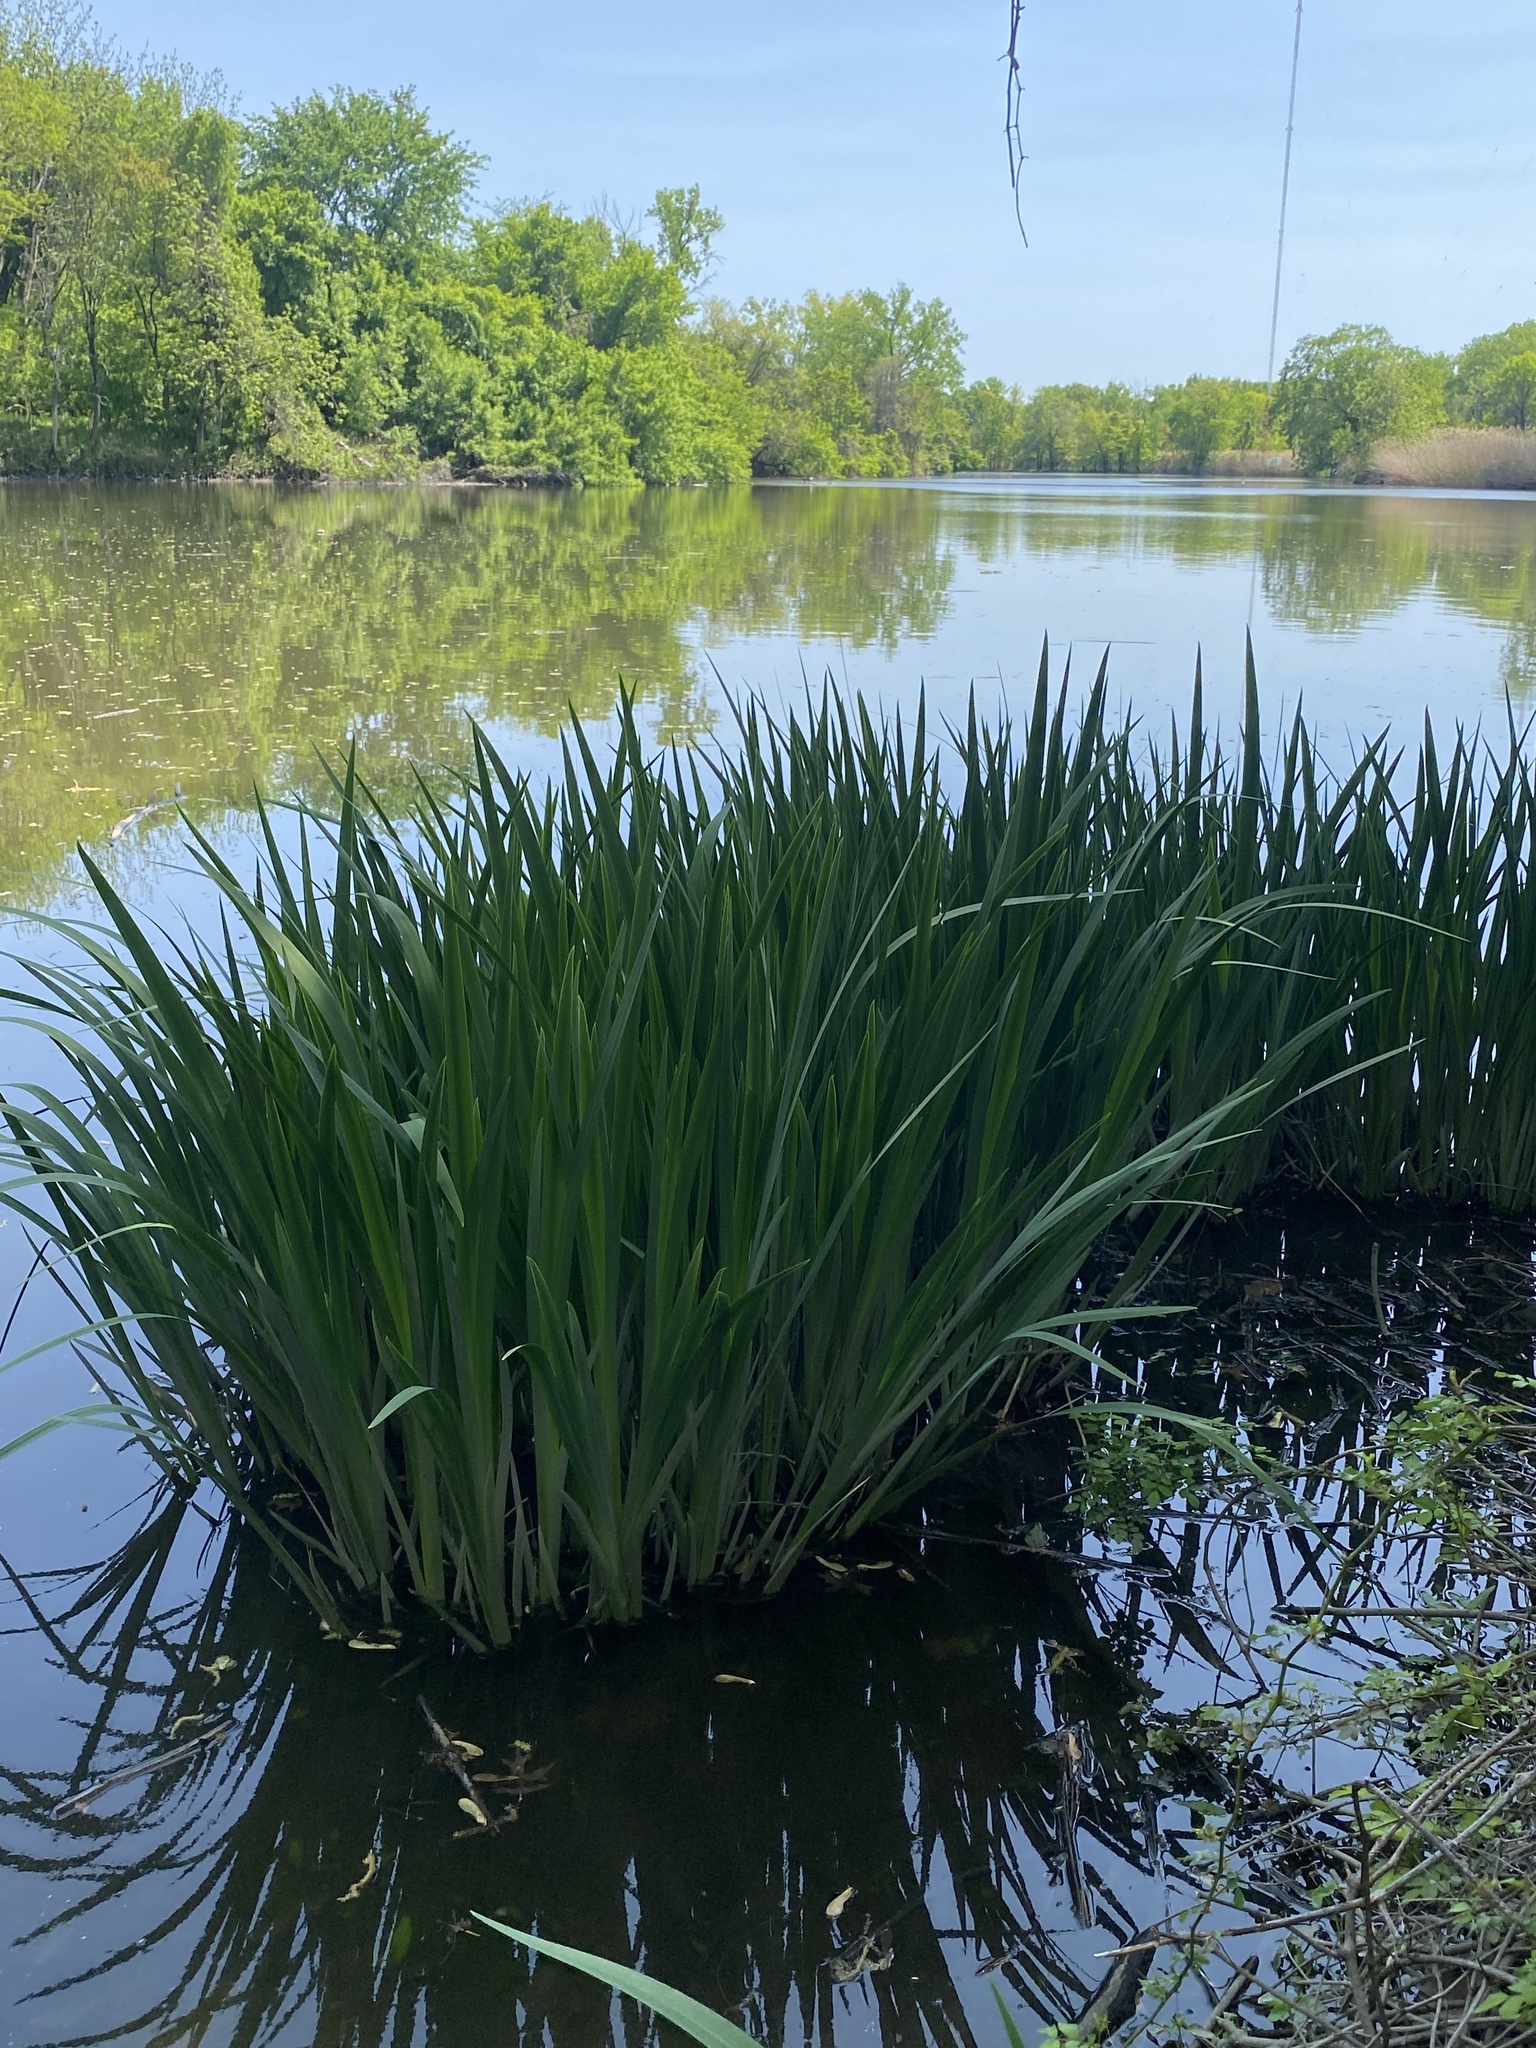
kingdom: Plantae
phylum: Tracheophyta
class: Liliopsida
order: Asparagales
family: Iridaceae
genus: Iris
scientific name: Iris pseudacorus
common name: Yellow flag
